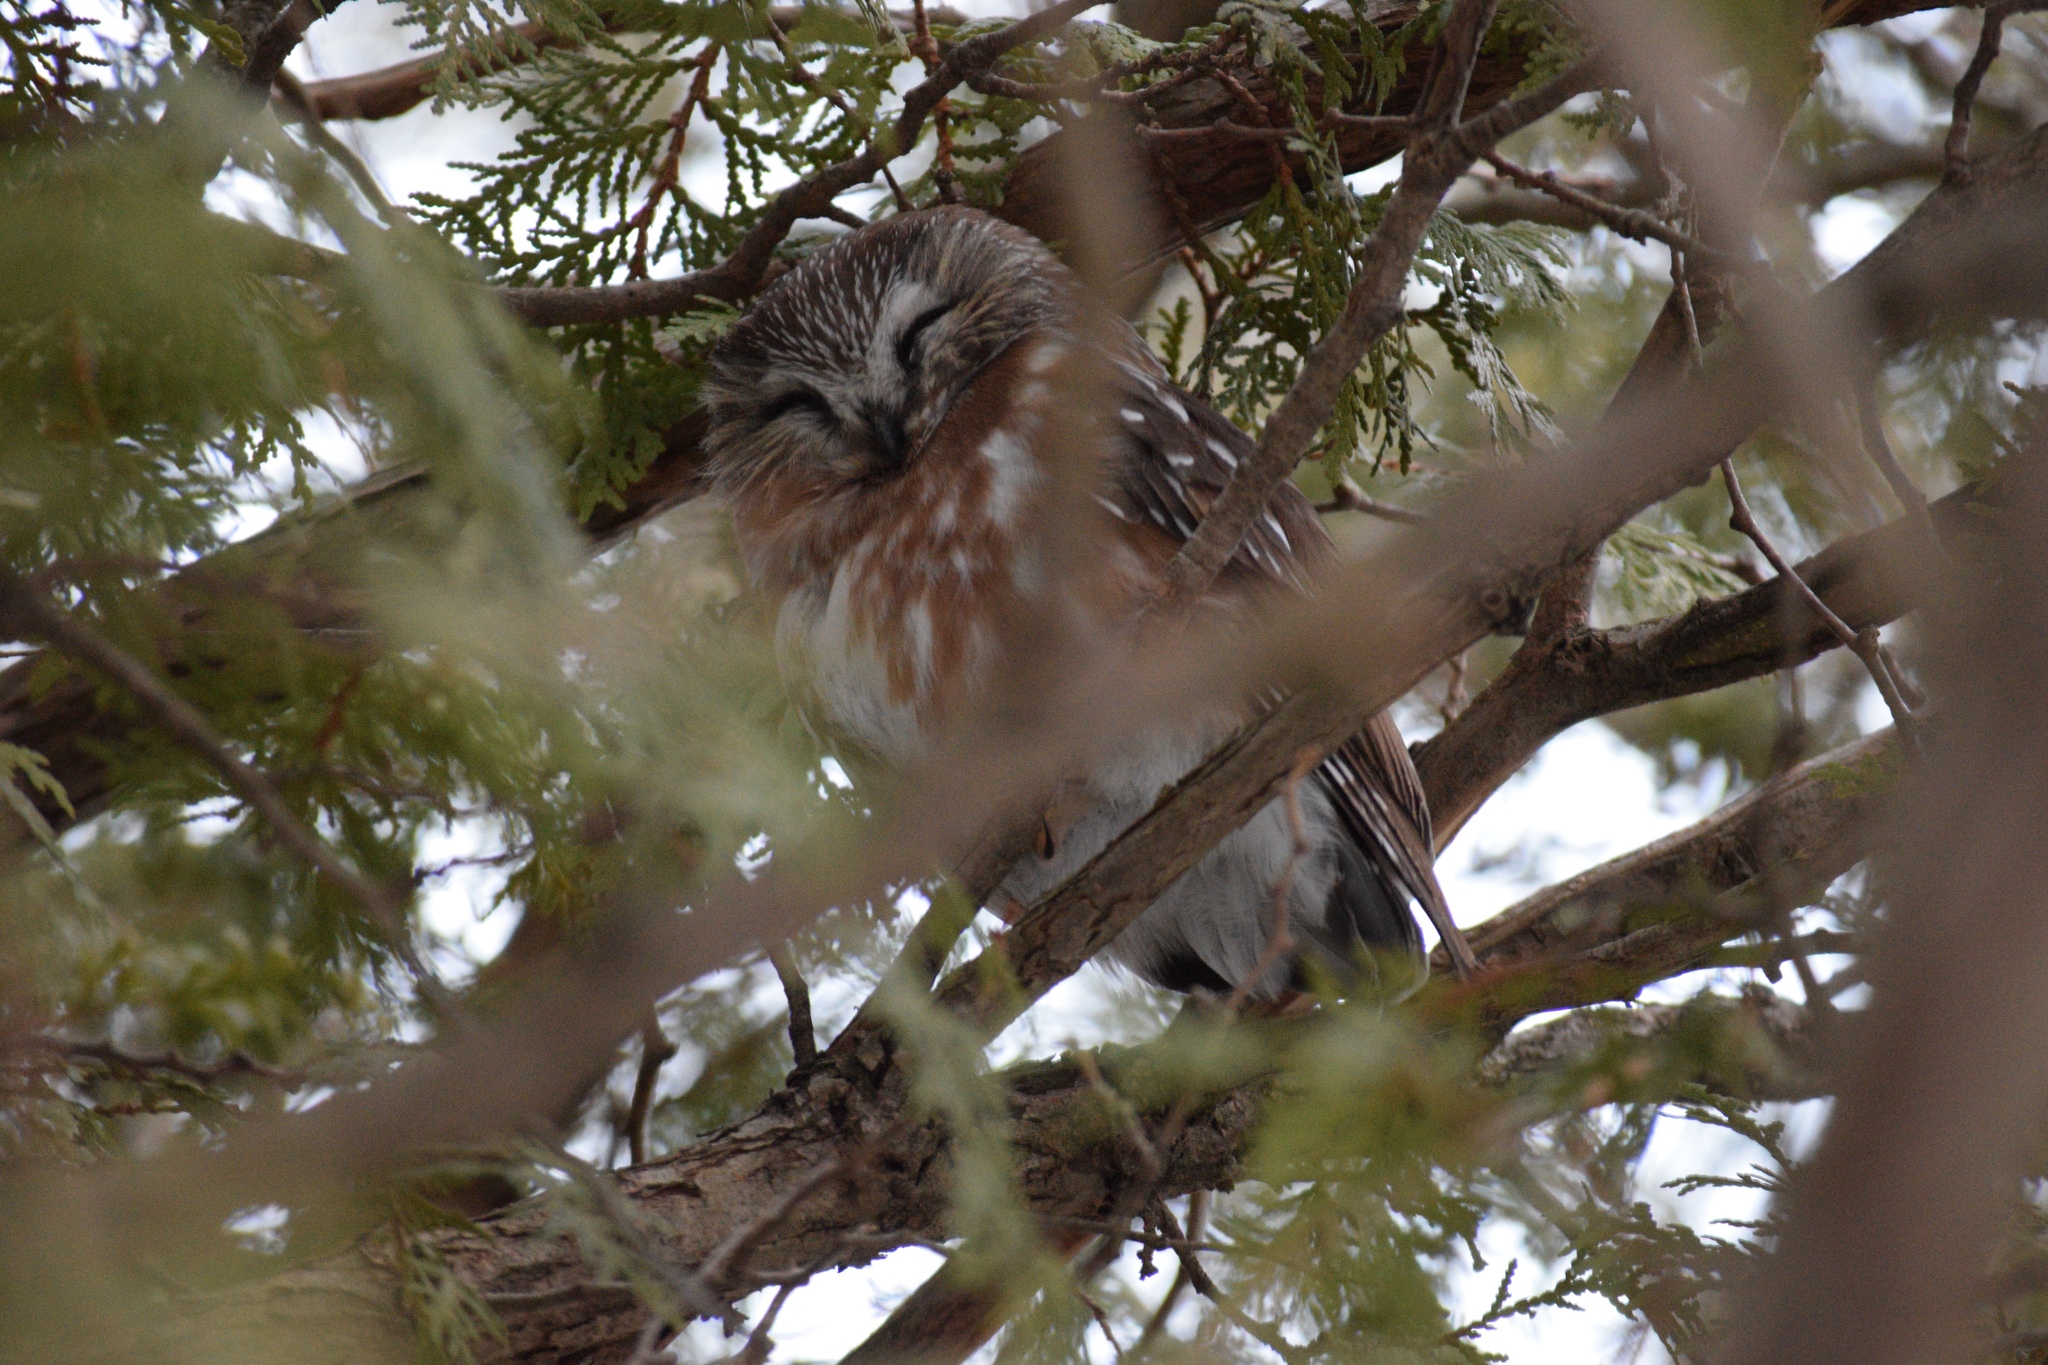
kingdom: Animalia
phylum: Chordata
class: Aves
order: Strigiformes
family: Strigidae
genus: Aegolius
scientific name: Aegolius acadicus
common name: Northern saw-whet owl
